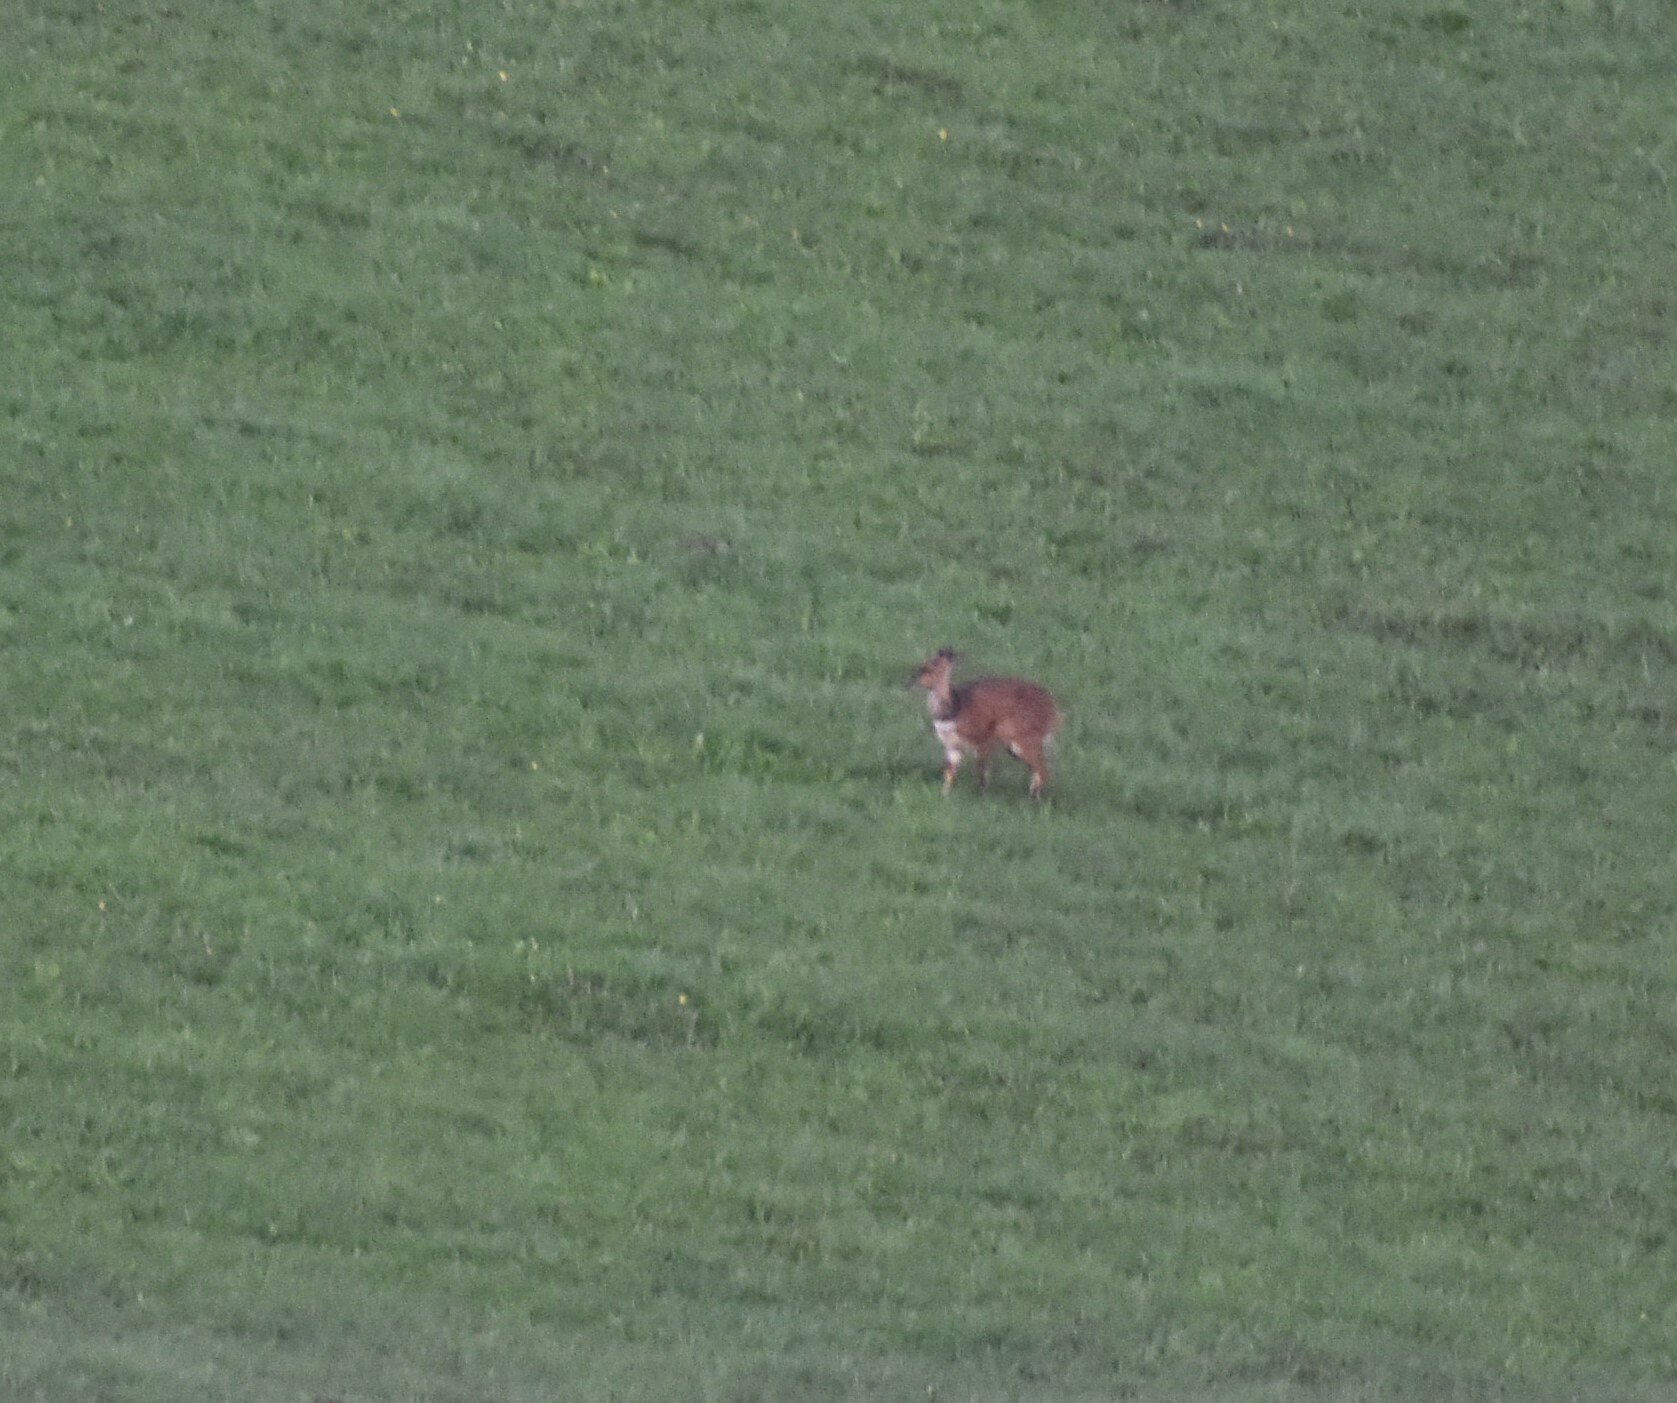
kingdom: Animalia
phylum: Chordata
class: Mammalia
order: Artiodactyla
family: Bovidae
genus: Tragelaphus
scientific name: Tragelaphus scriptus
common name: Bushbuck
